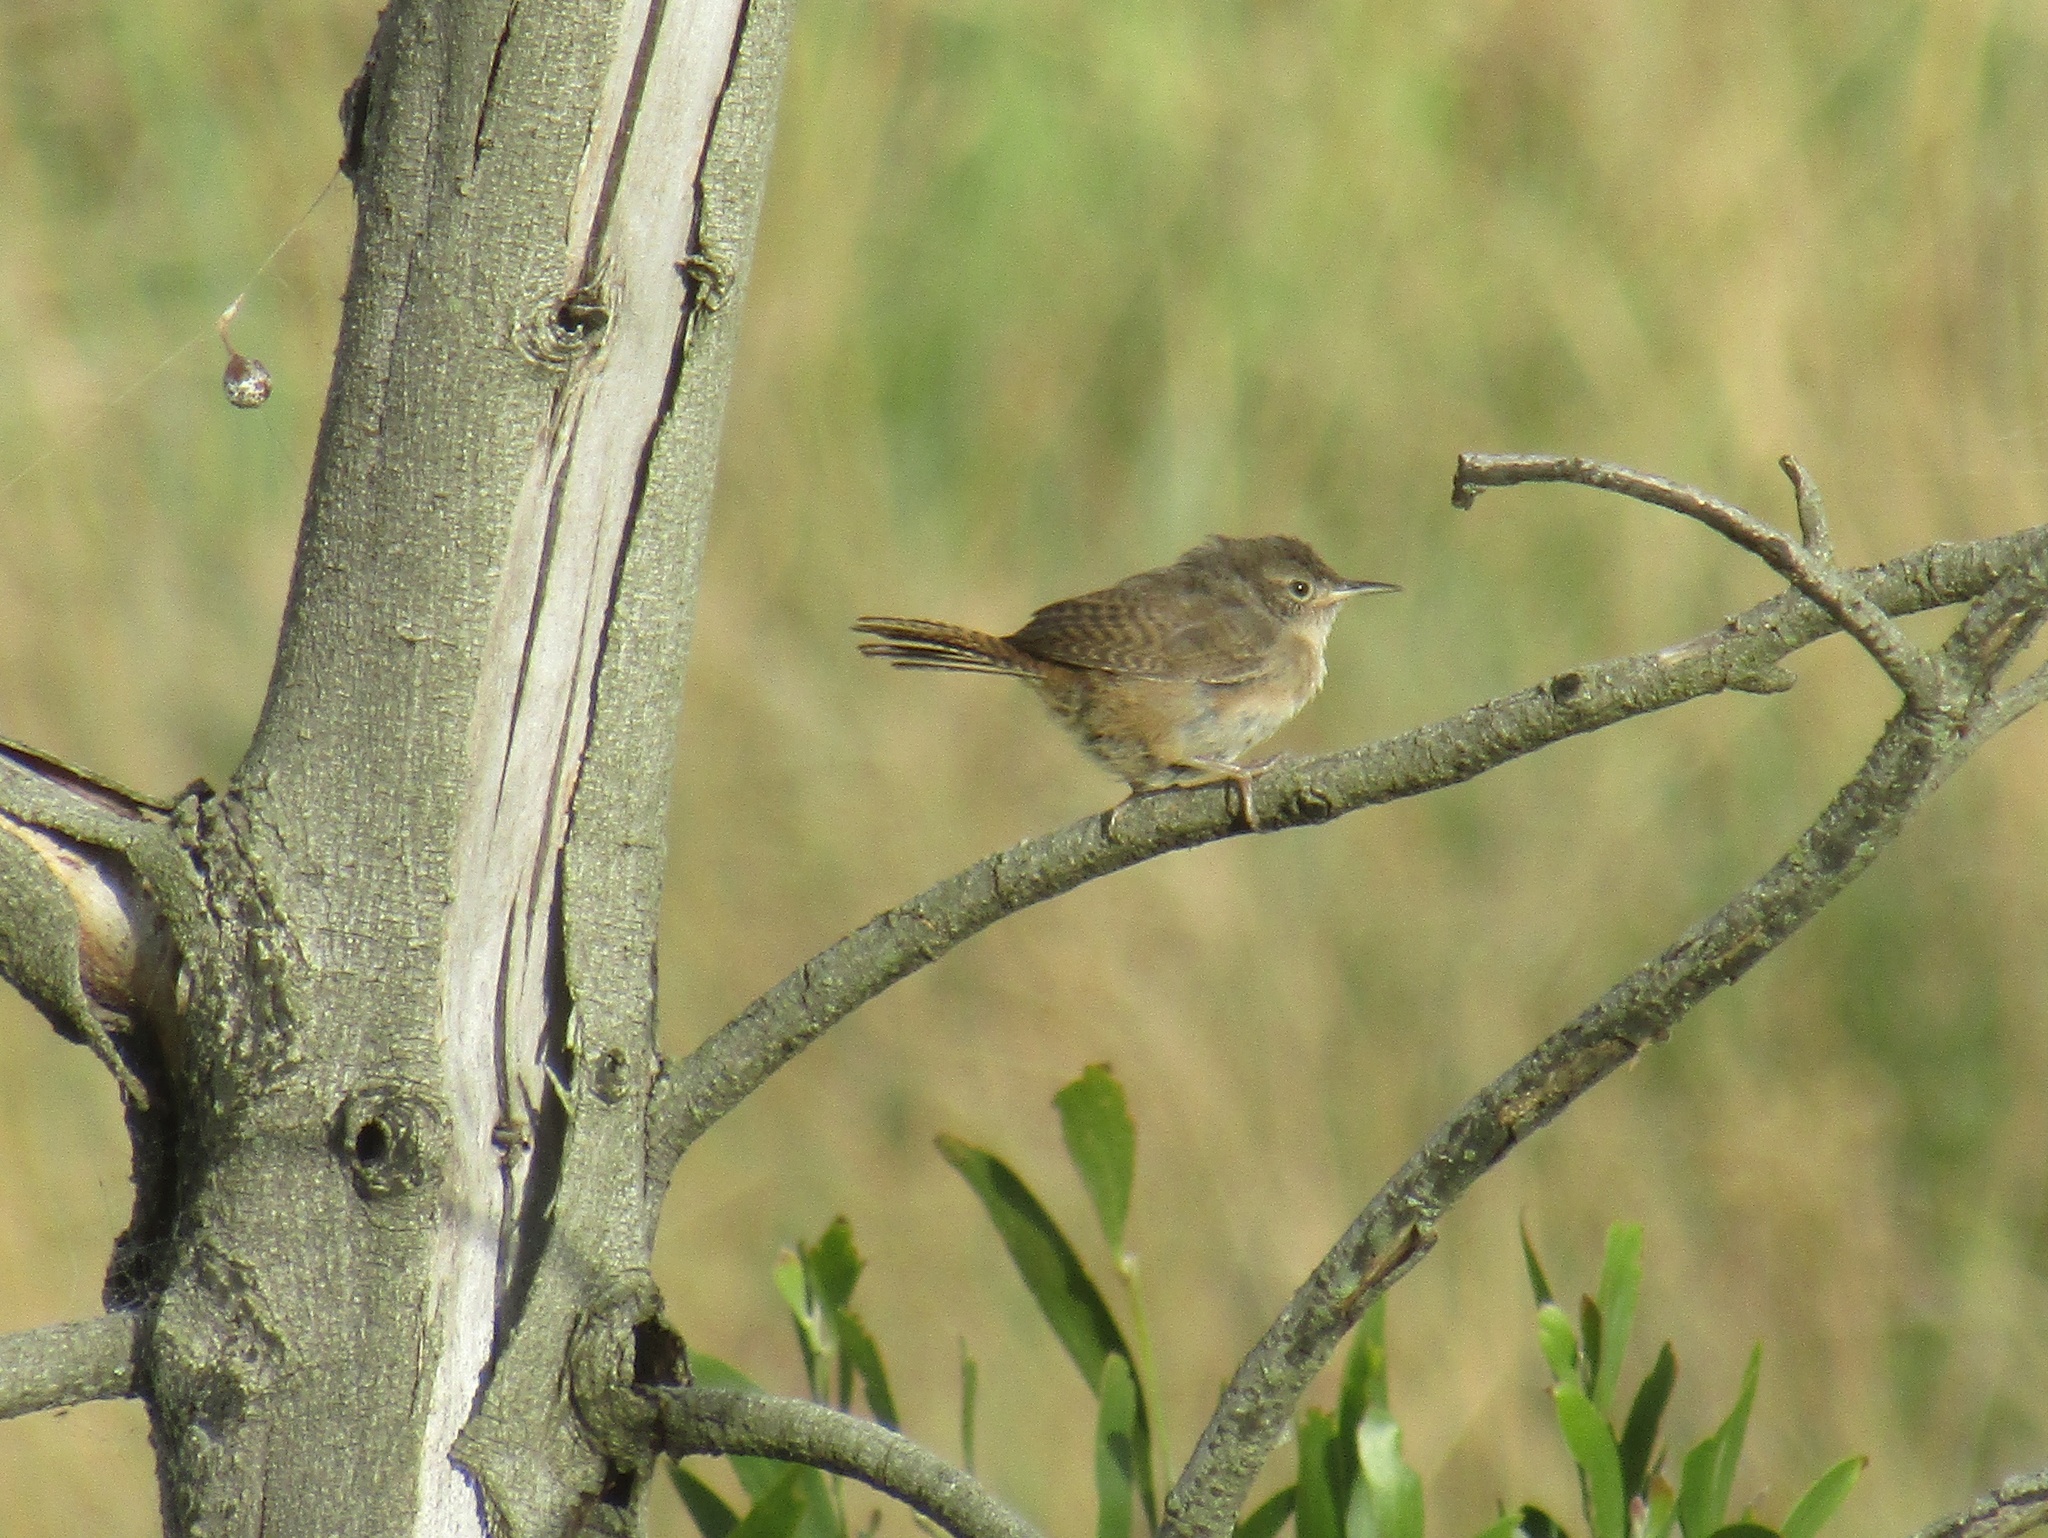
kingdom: Animalia
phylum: Chordata
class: Aves
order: Passeriformes
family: Troglodytidae
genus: Troglodytes
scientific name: Troglodytes aedon
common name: House wren
